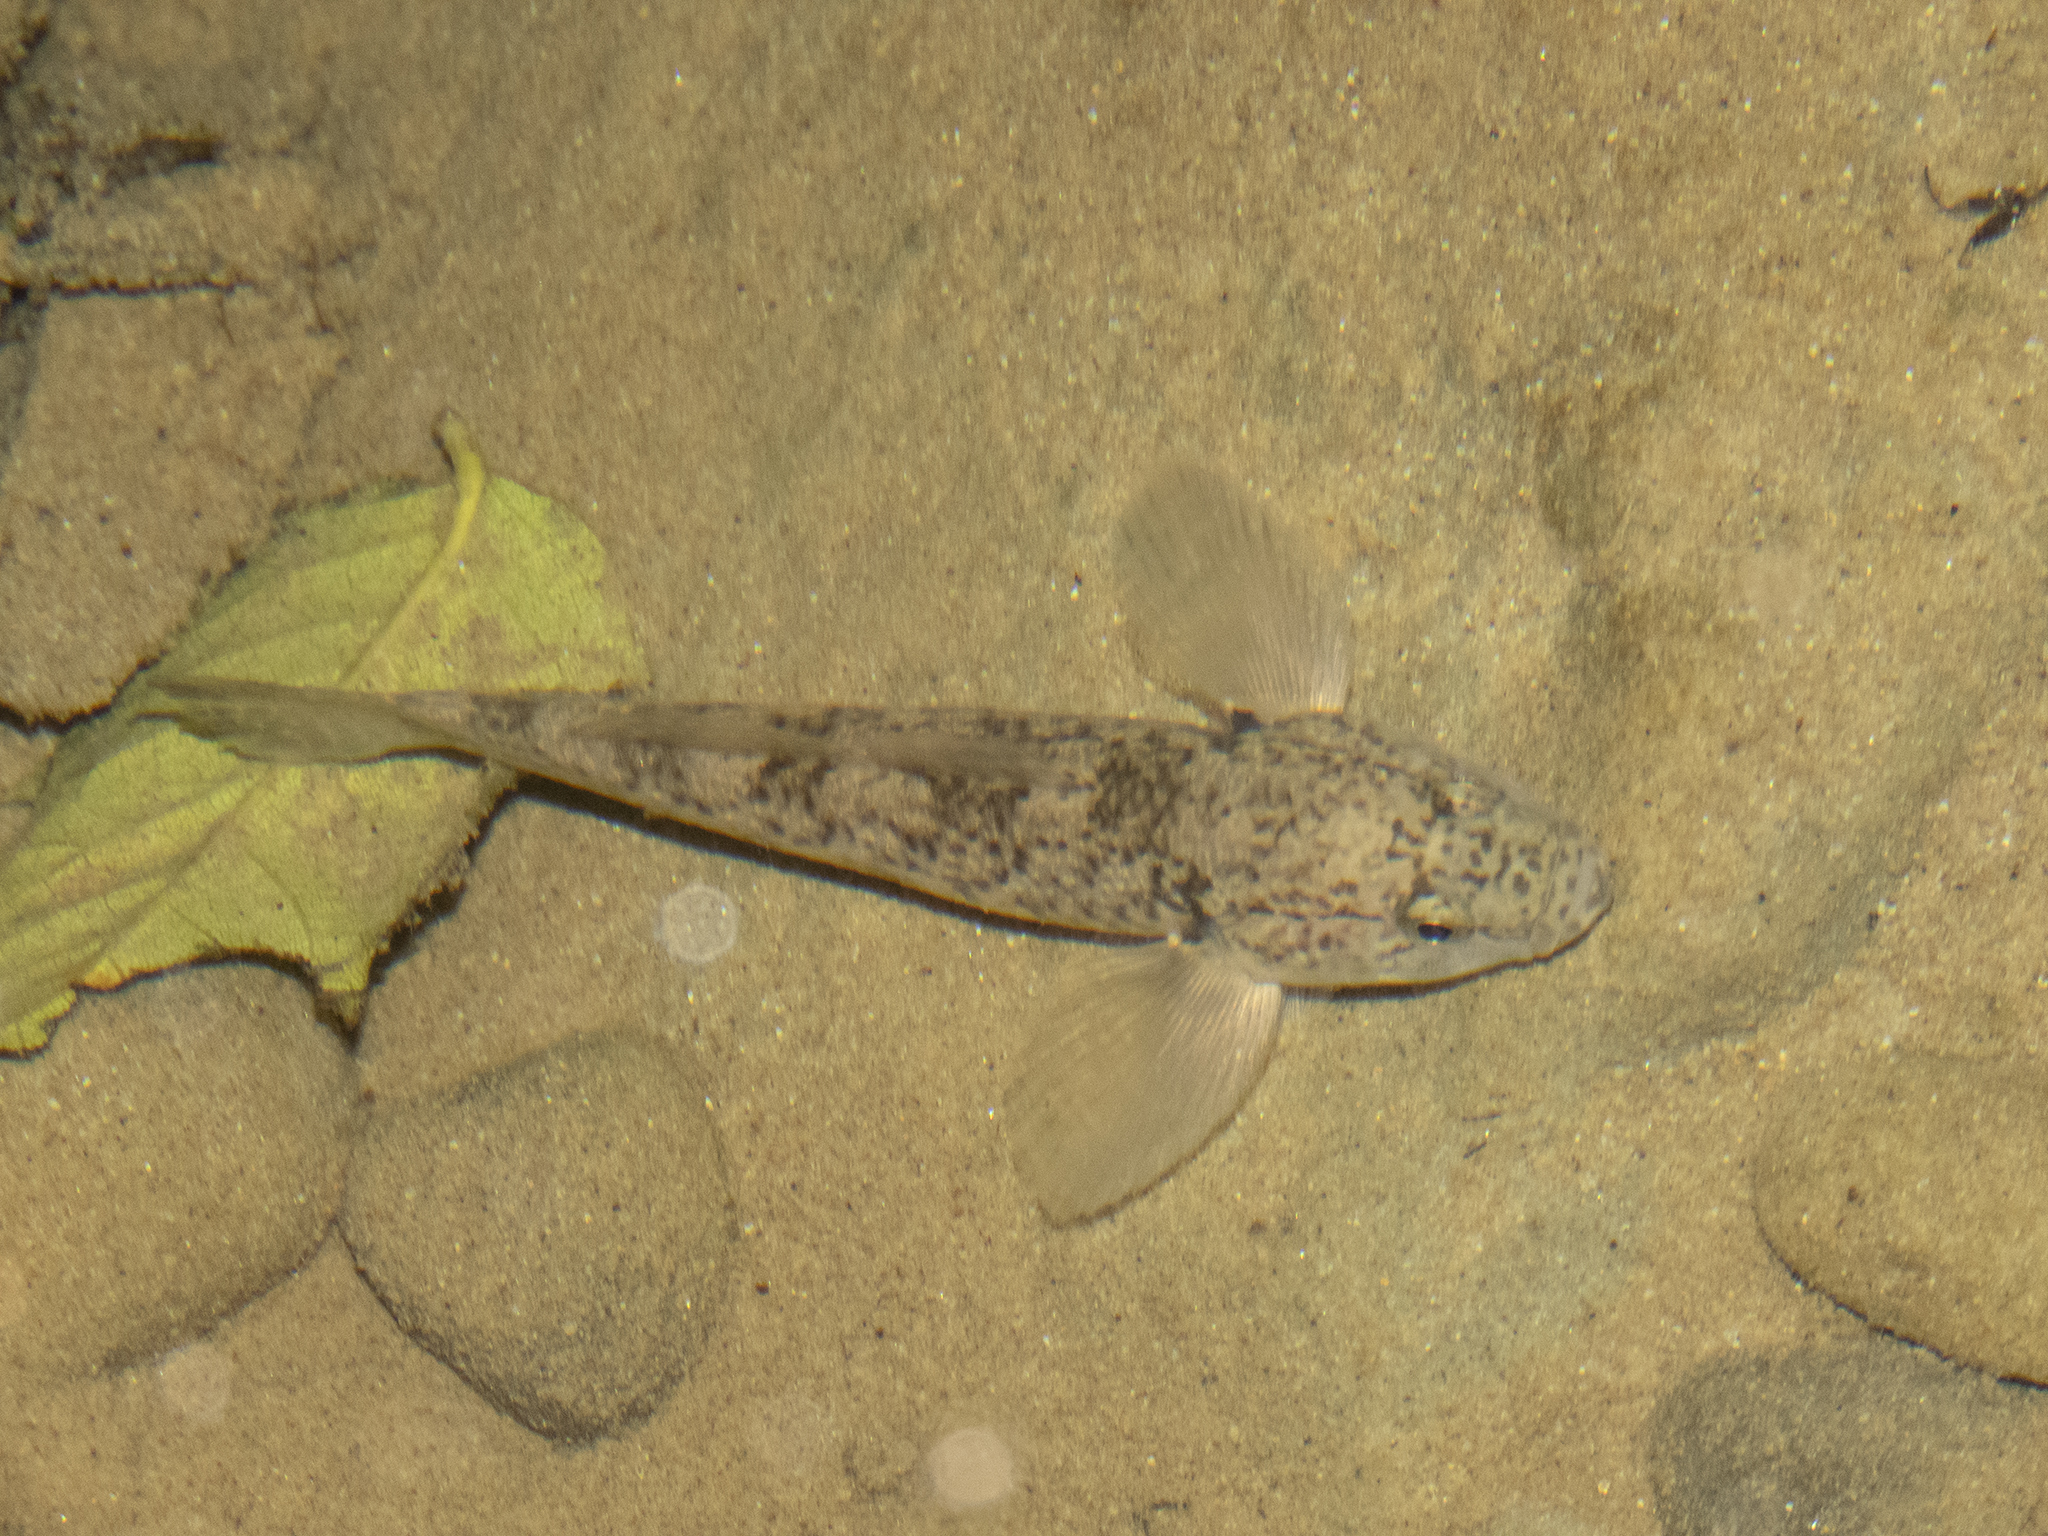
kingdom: Animalia
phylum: Chordata
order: Perciformes
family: Eleotridae
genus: Gobiomorphus
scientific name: Gobiomorphus cotidianus
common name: Common bully
